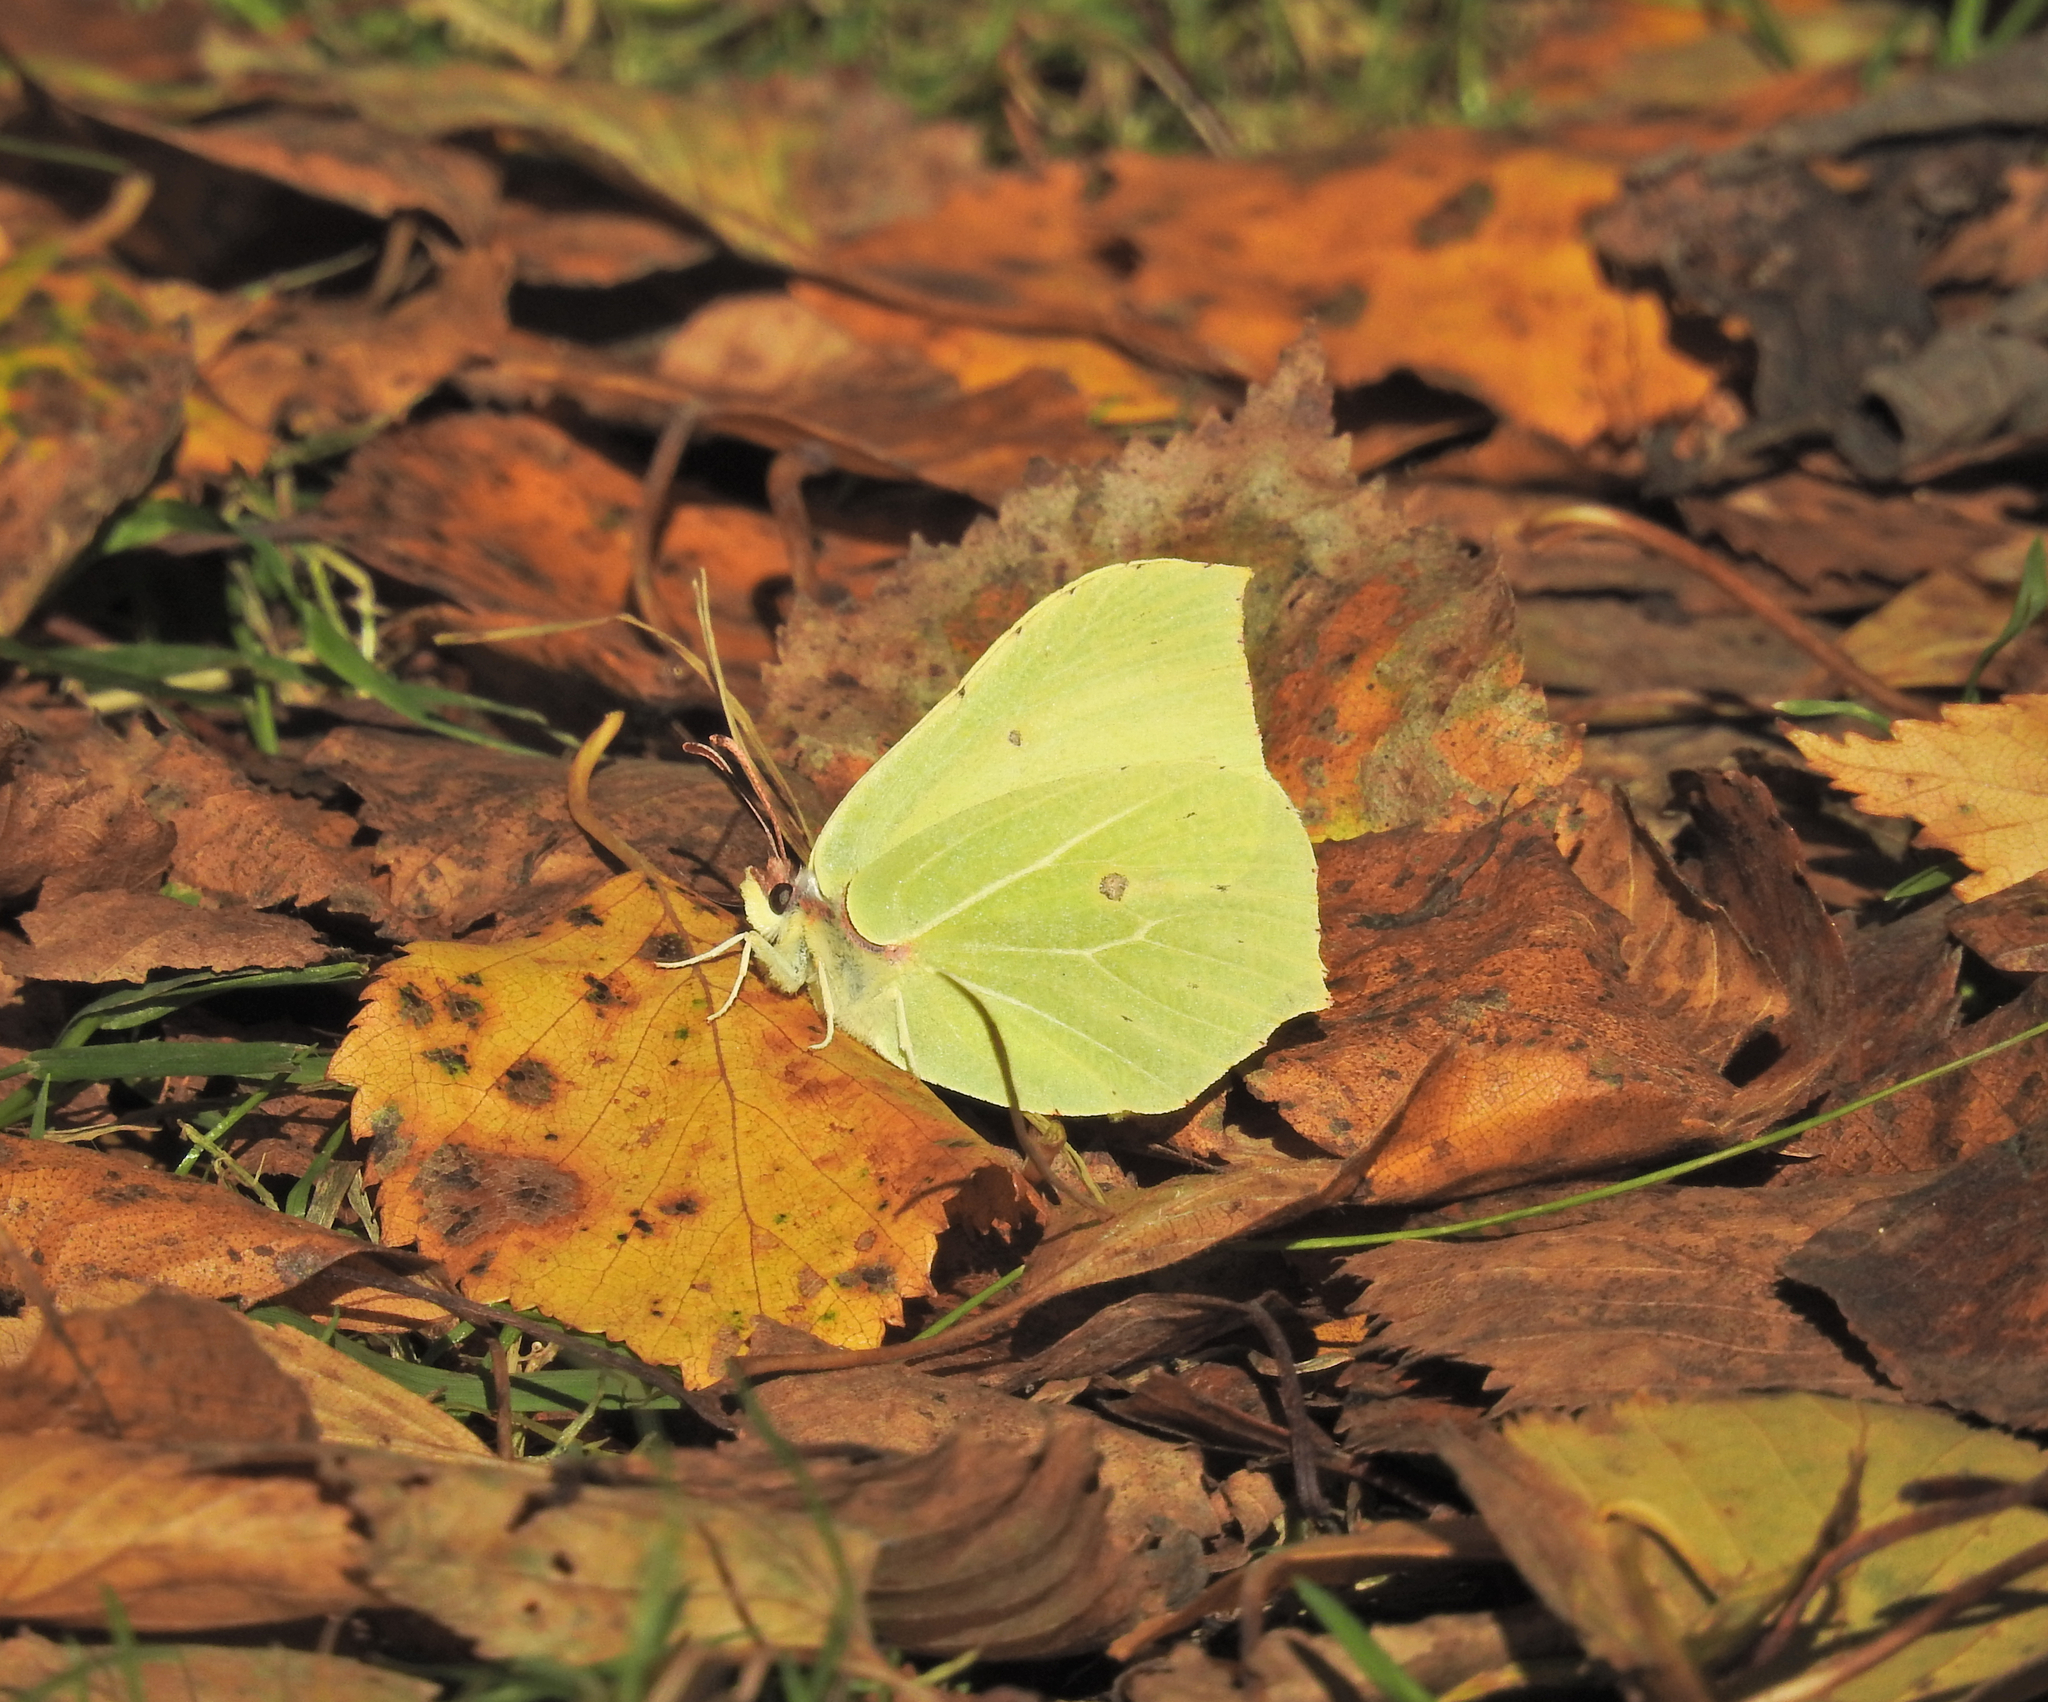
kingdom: Animalia
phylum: Arthropoda
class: Insecta
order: Lepidoptera
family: Pieridae
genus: Gonepteryx
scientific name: Gonepteryx rhamni
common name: Brimstone
